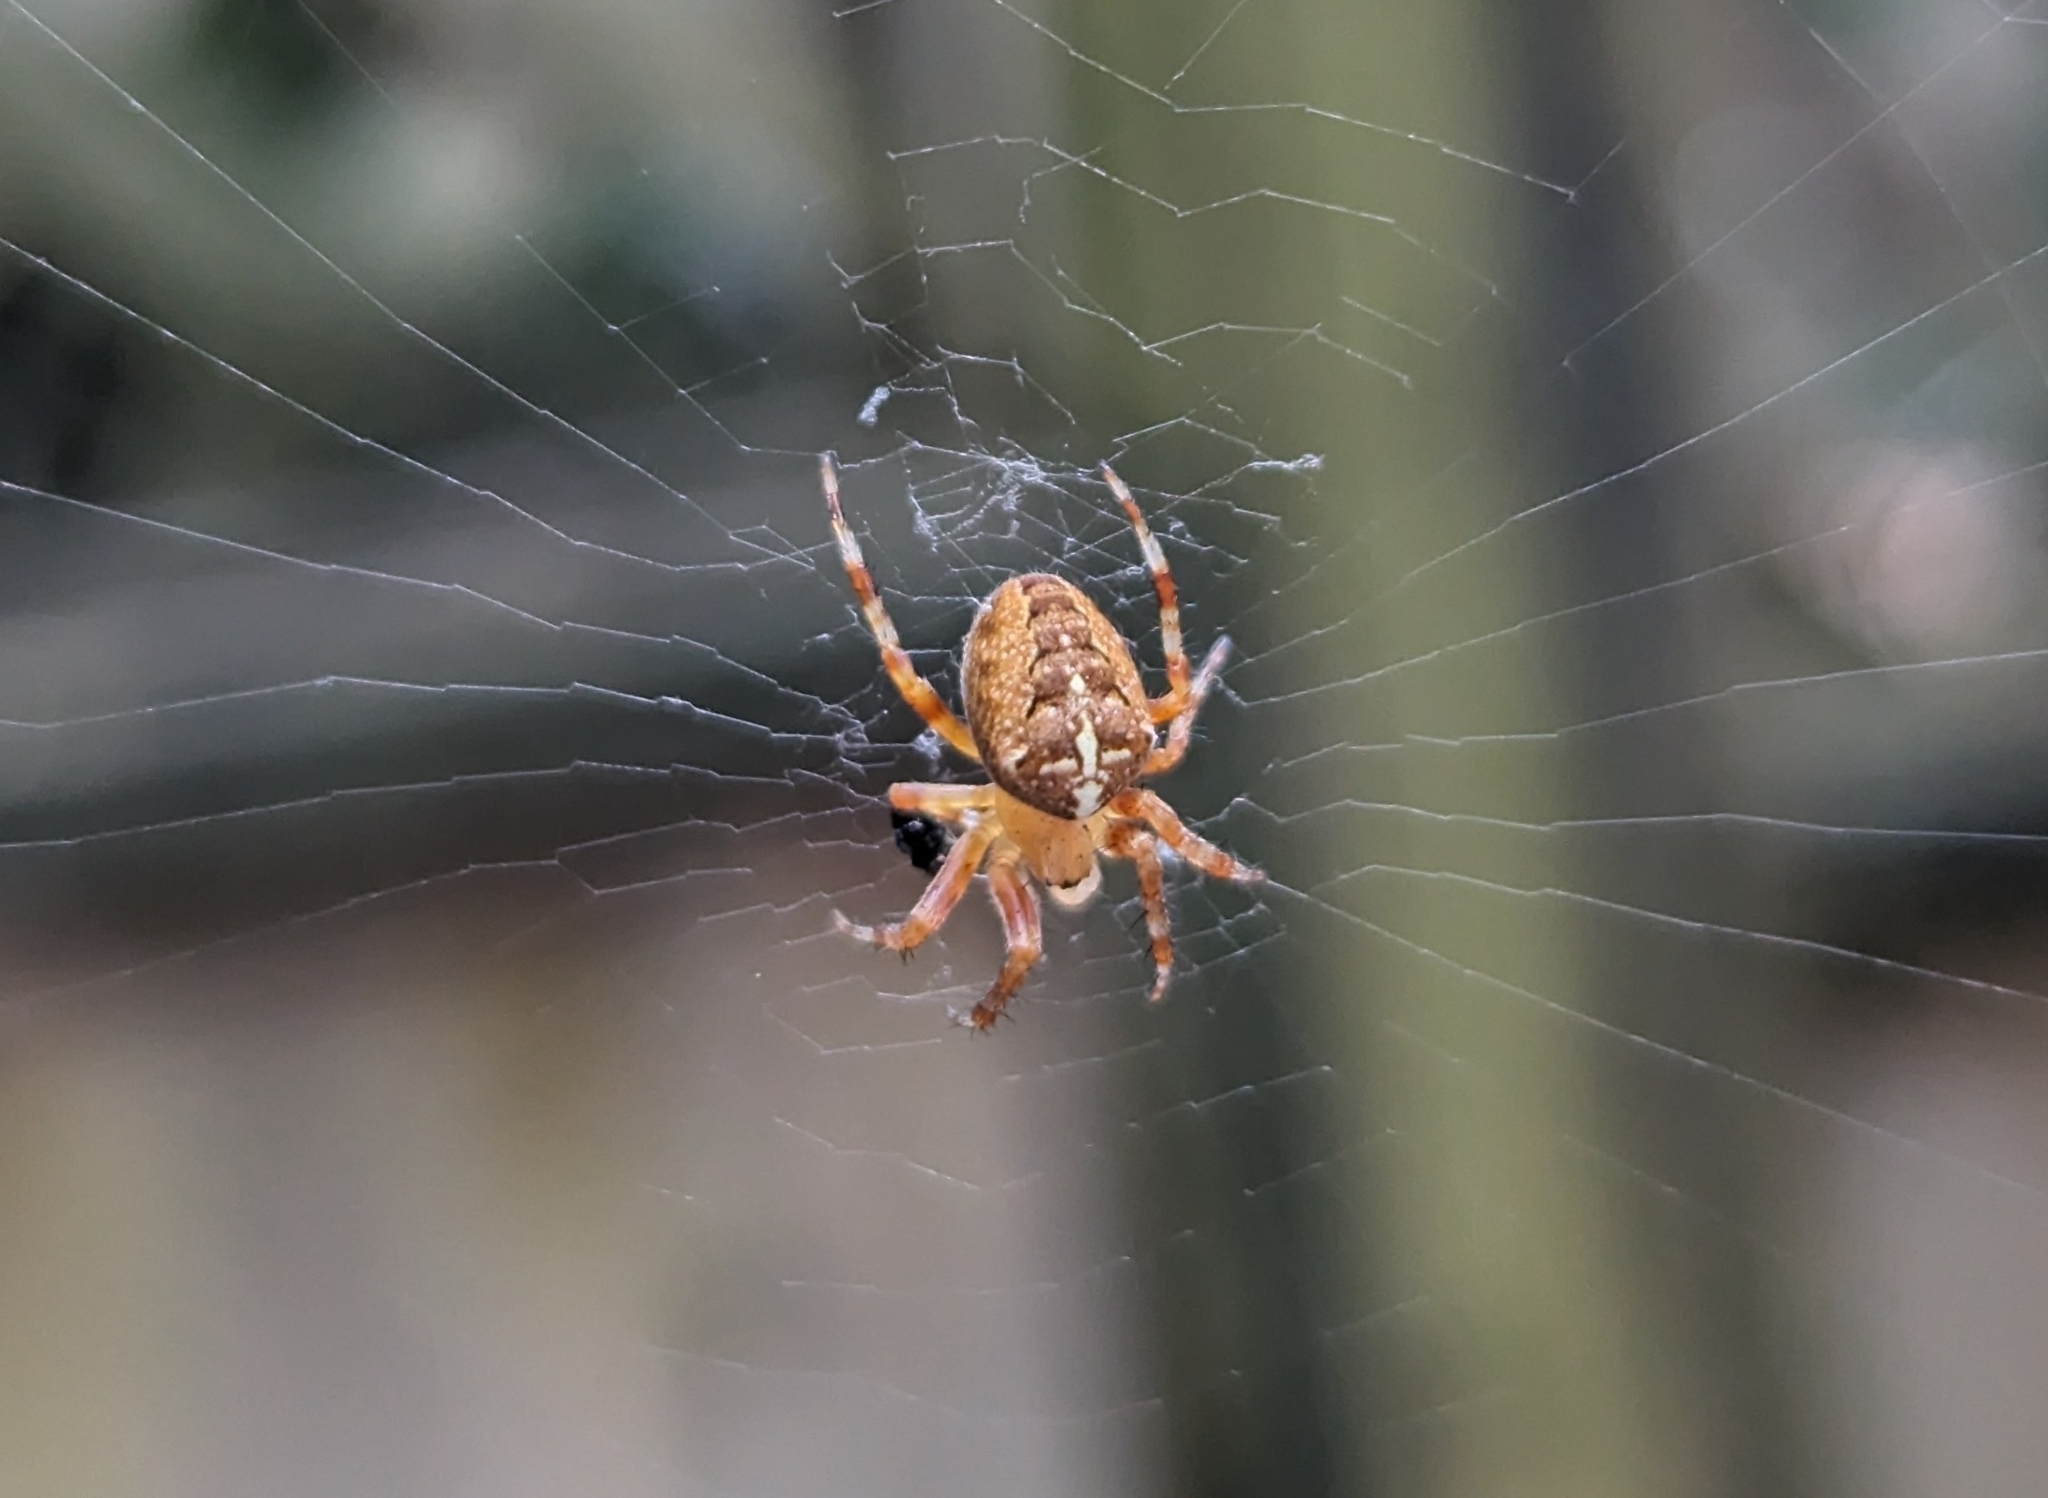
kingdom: Animalia
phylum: Arthropoda
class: Arachnida
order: Araneae
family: Araneidae
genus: Araneus
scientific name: Araneus diadematus
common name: Cross orbweaver
